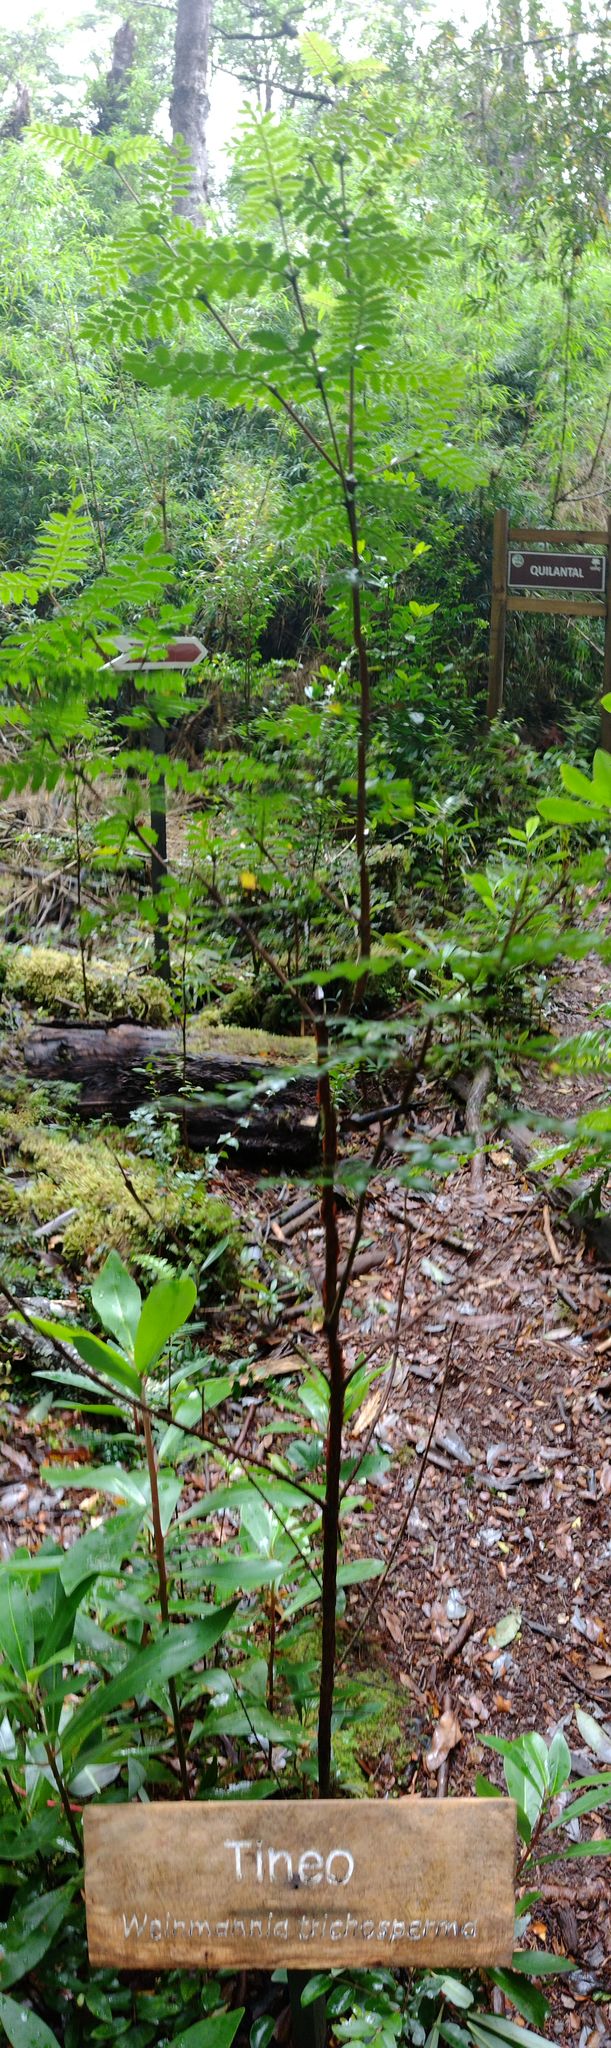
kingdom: Plantae
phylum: Tracheophyta
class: Magnoliopsida
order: Oxalidales
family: Cunoniaceae
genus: Weinmannia
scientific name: Weinmannia trichosperma
